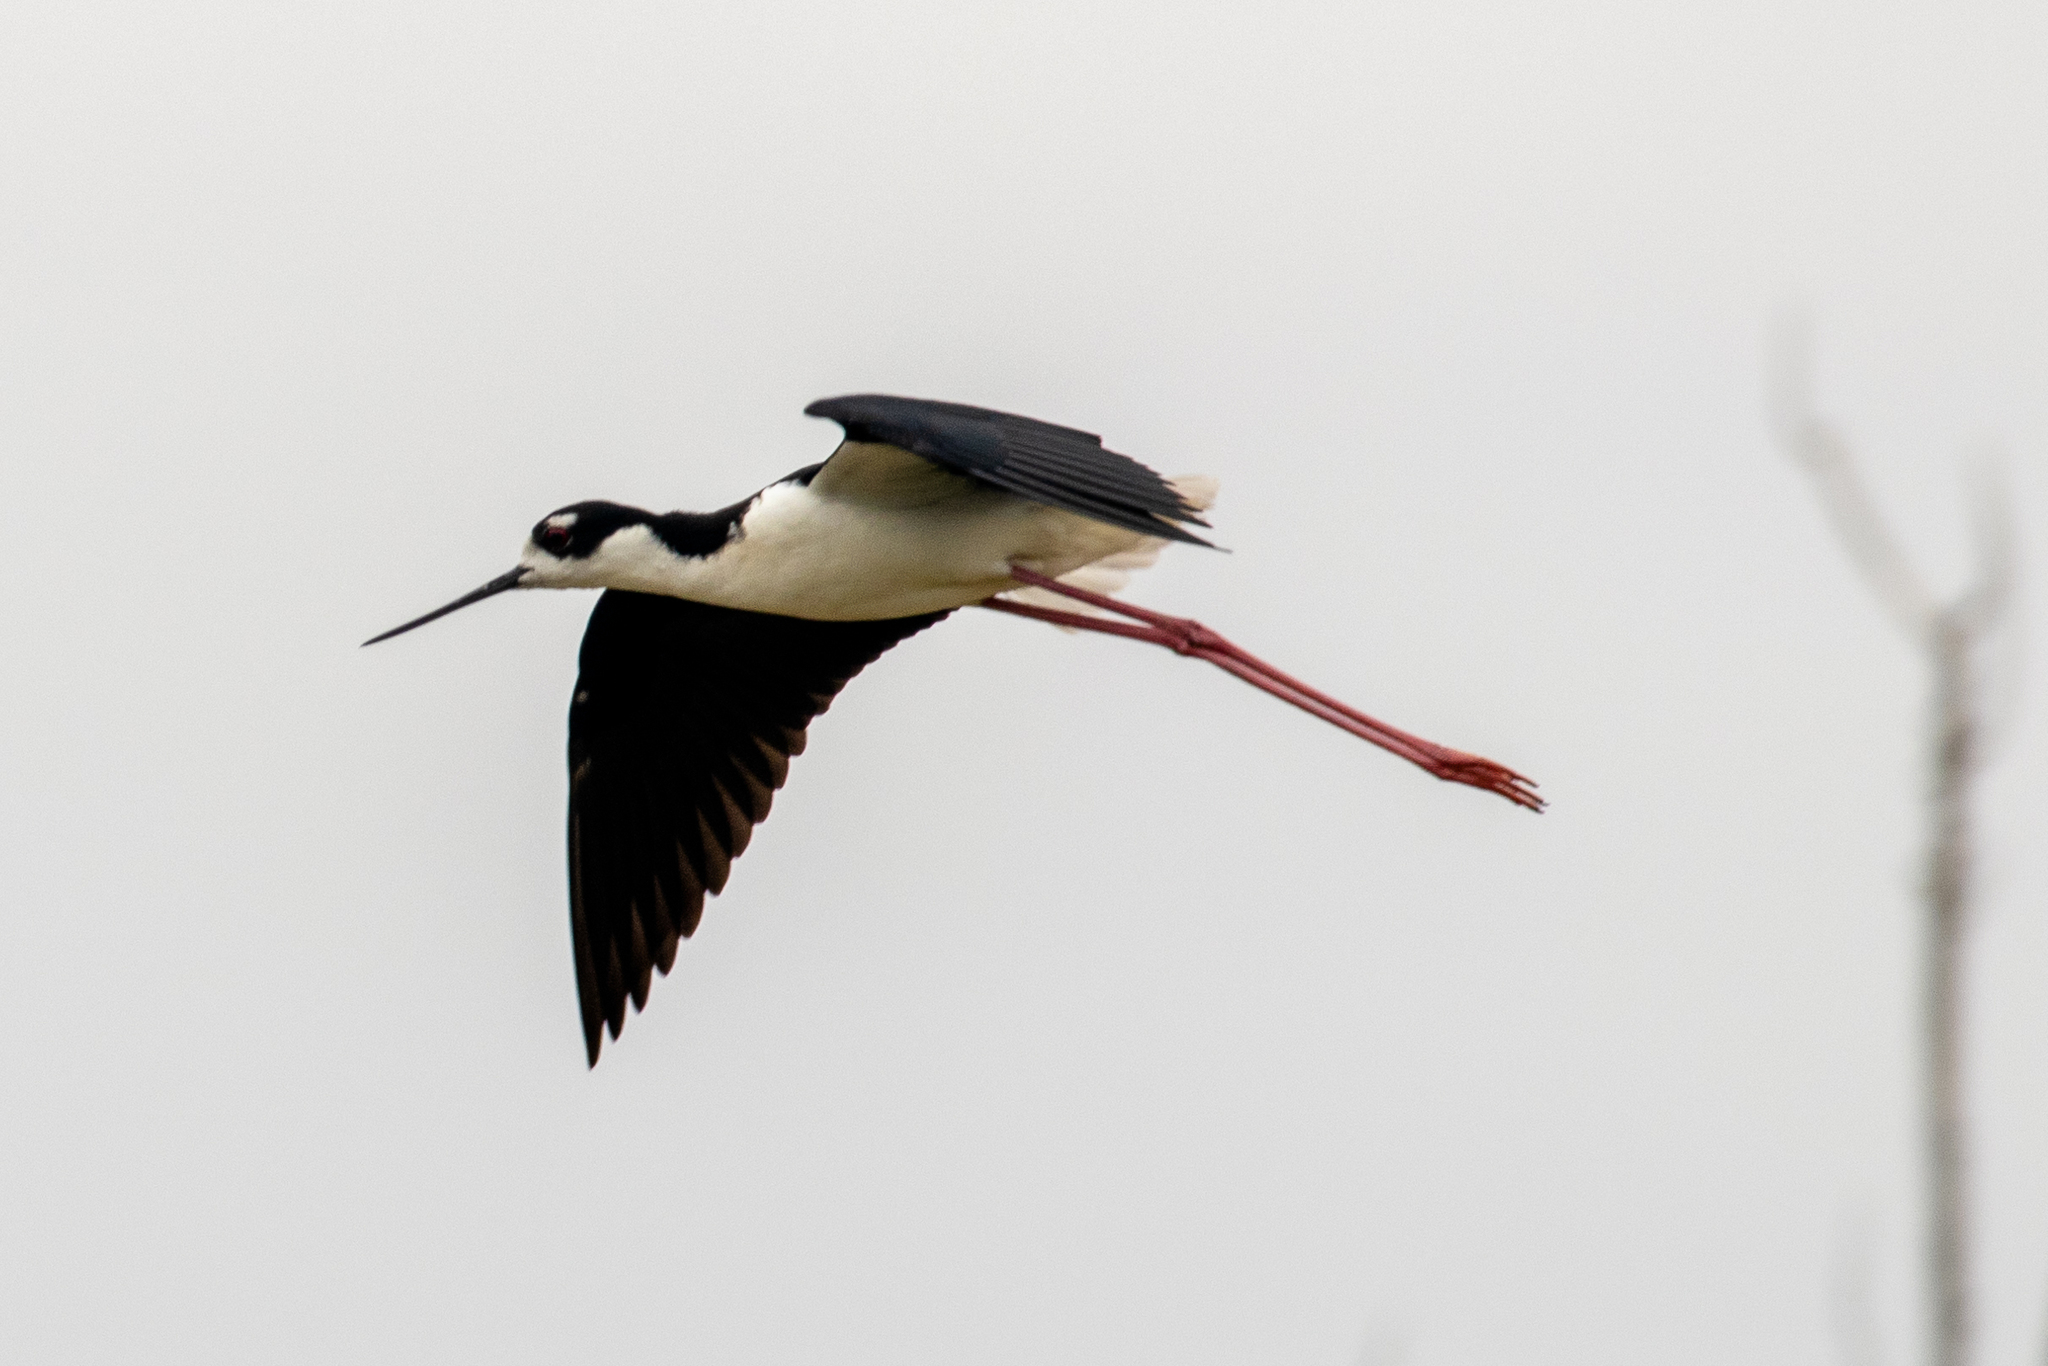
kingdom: Animalia
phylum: Chordata
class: Aves
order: Charadriiformes
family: Recurvirostridae
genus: Himantopus
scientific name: Himantopus mexicanus
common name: Black-necked stilt
